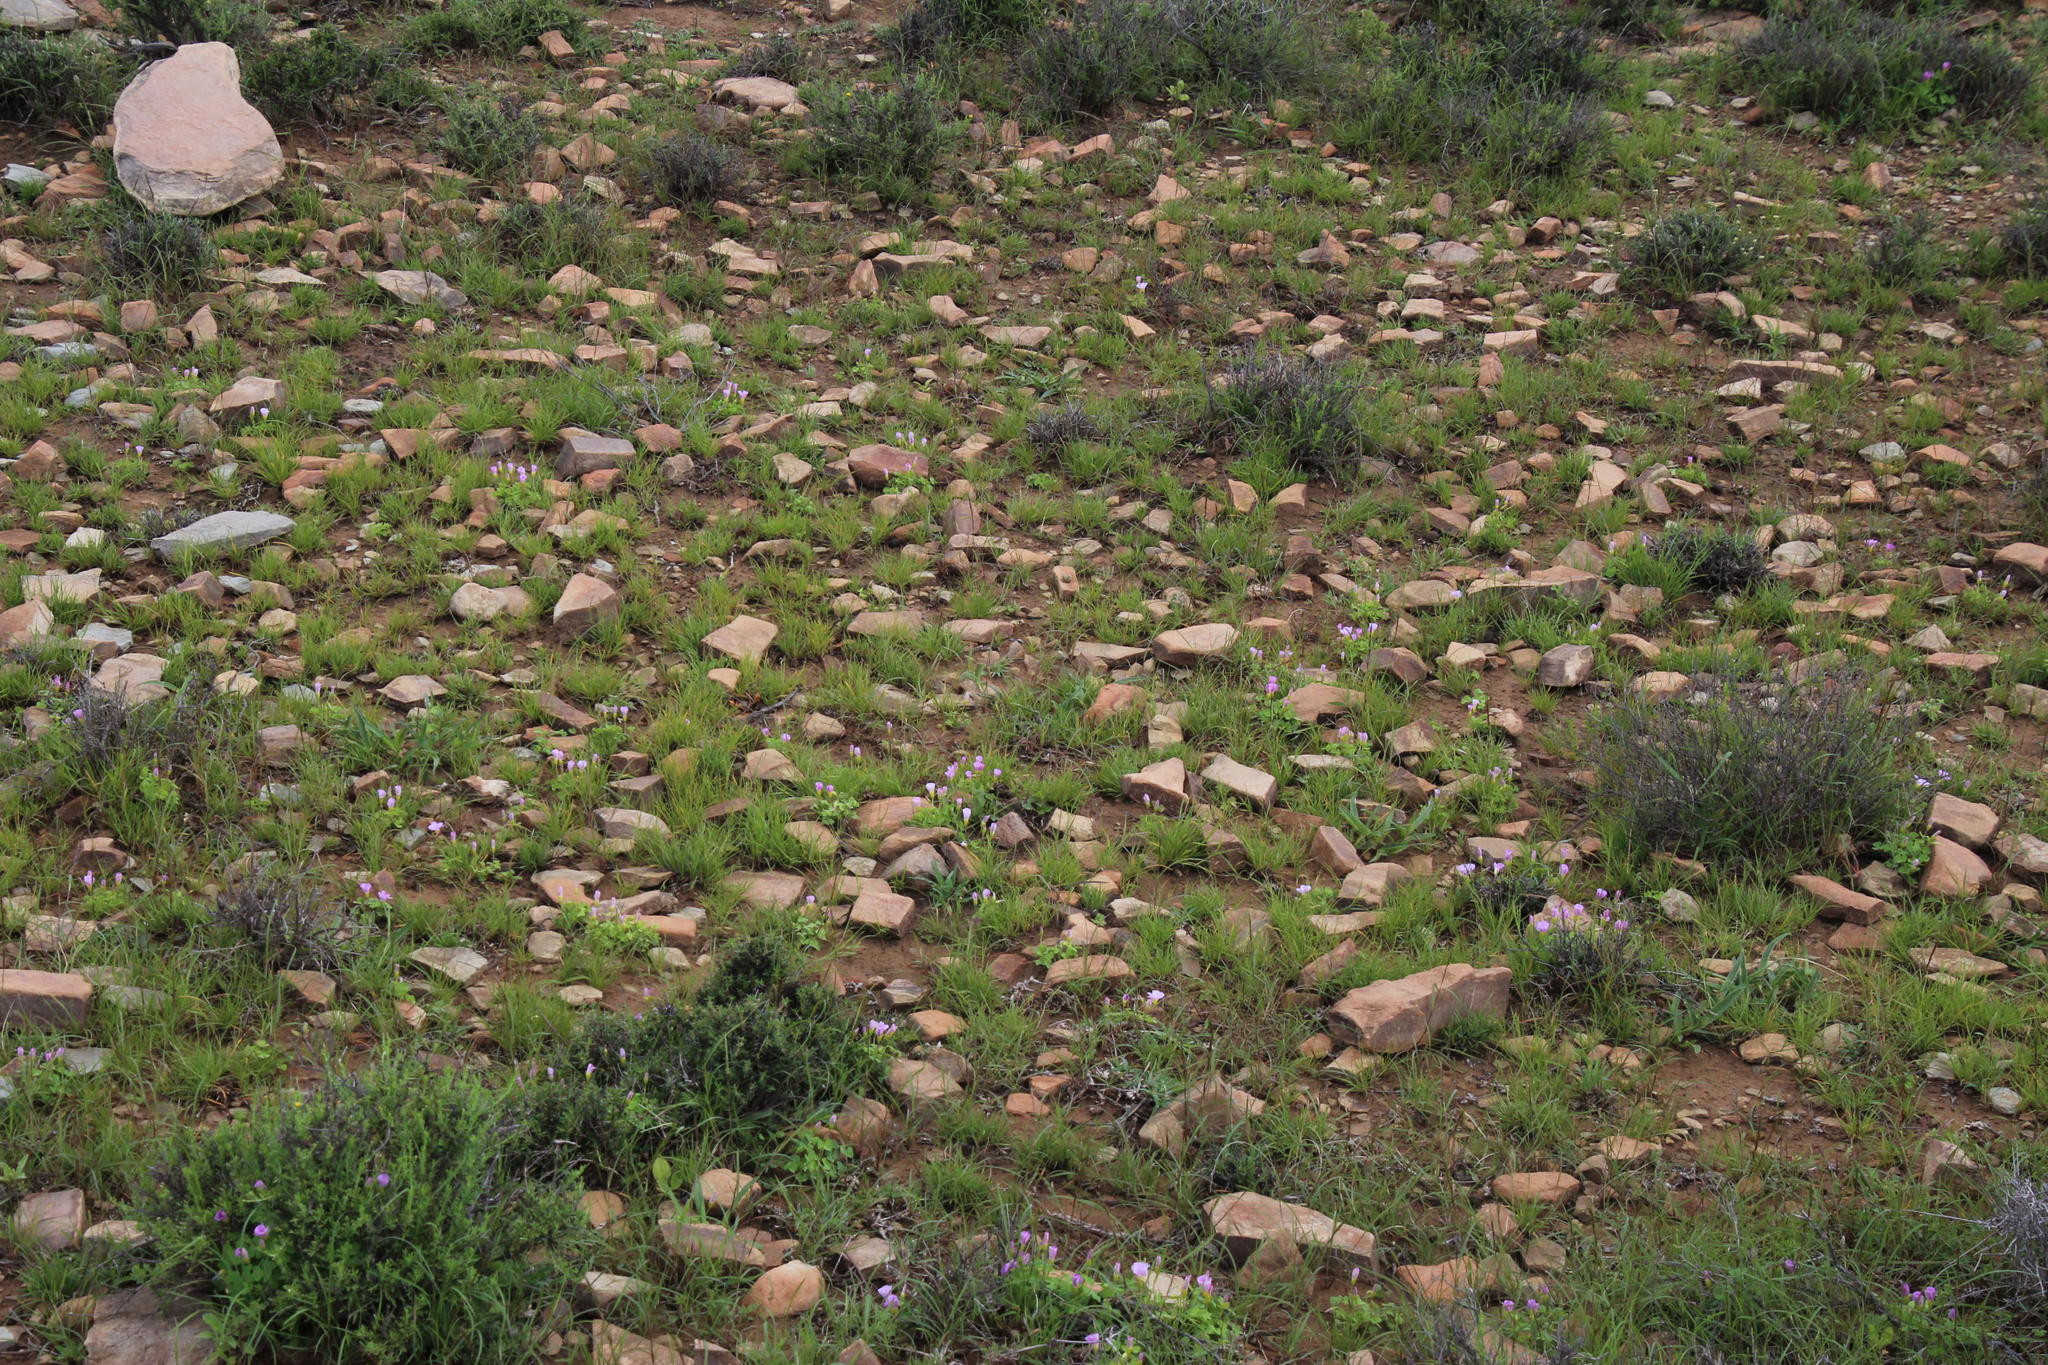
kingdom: Plantae
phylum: Tracheophyta
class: Magnoliopsida
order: Oxalidales
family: Oxalidaceae
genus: Oxalis
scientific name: Oxalis obliquifolia
